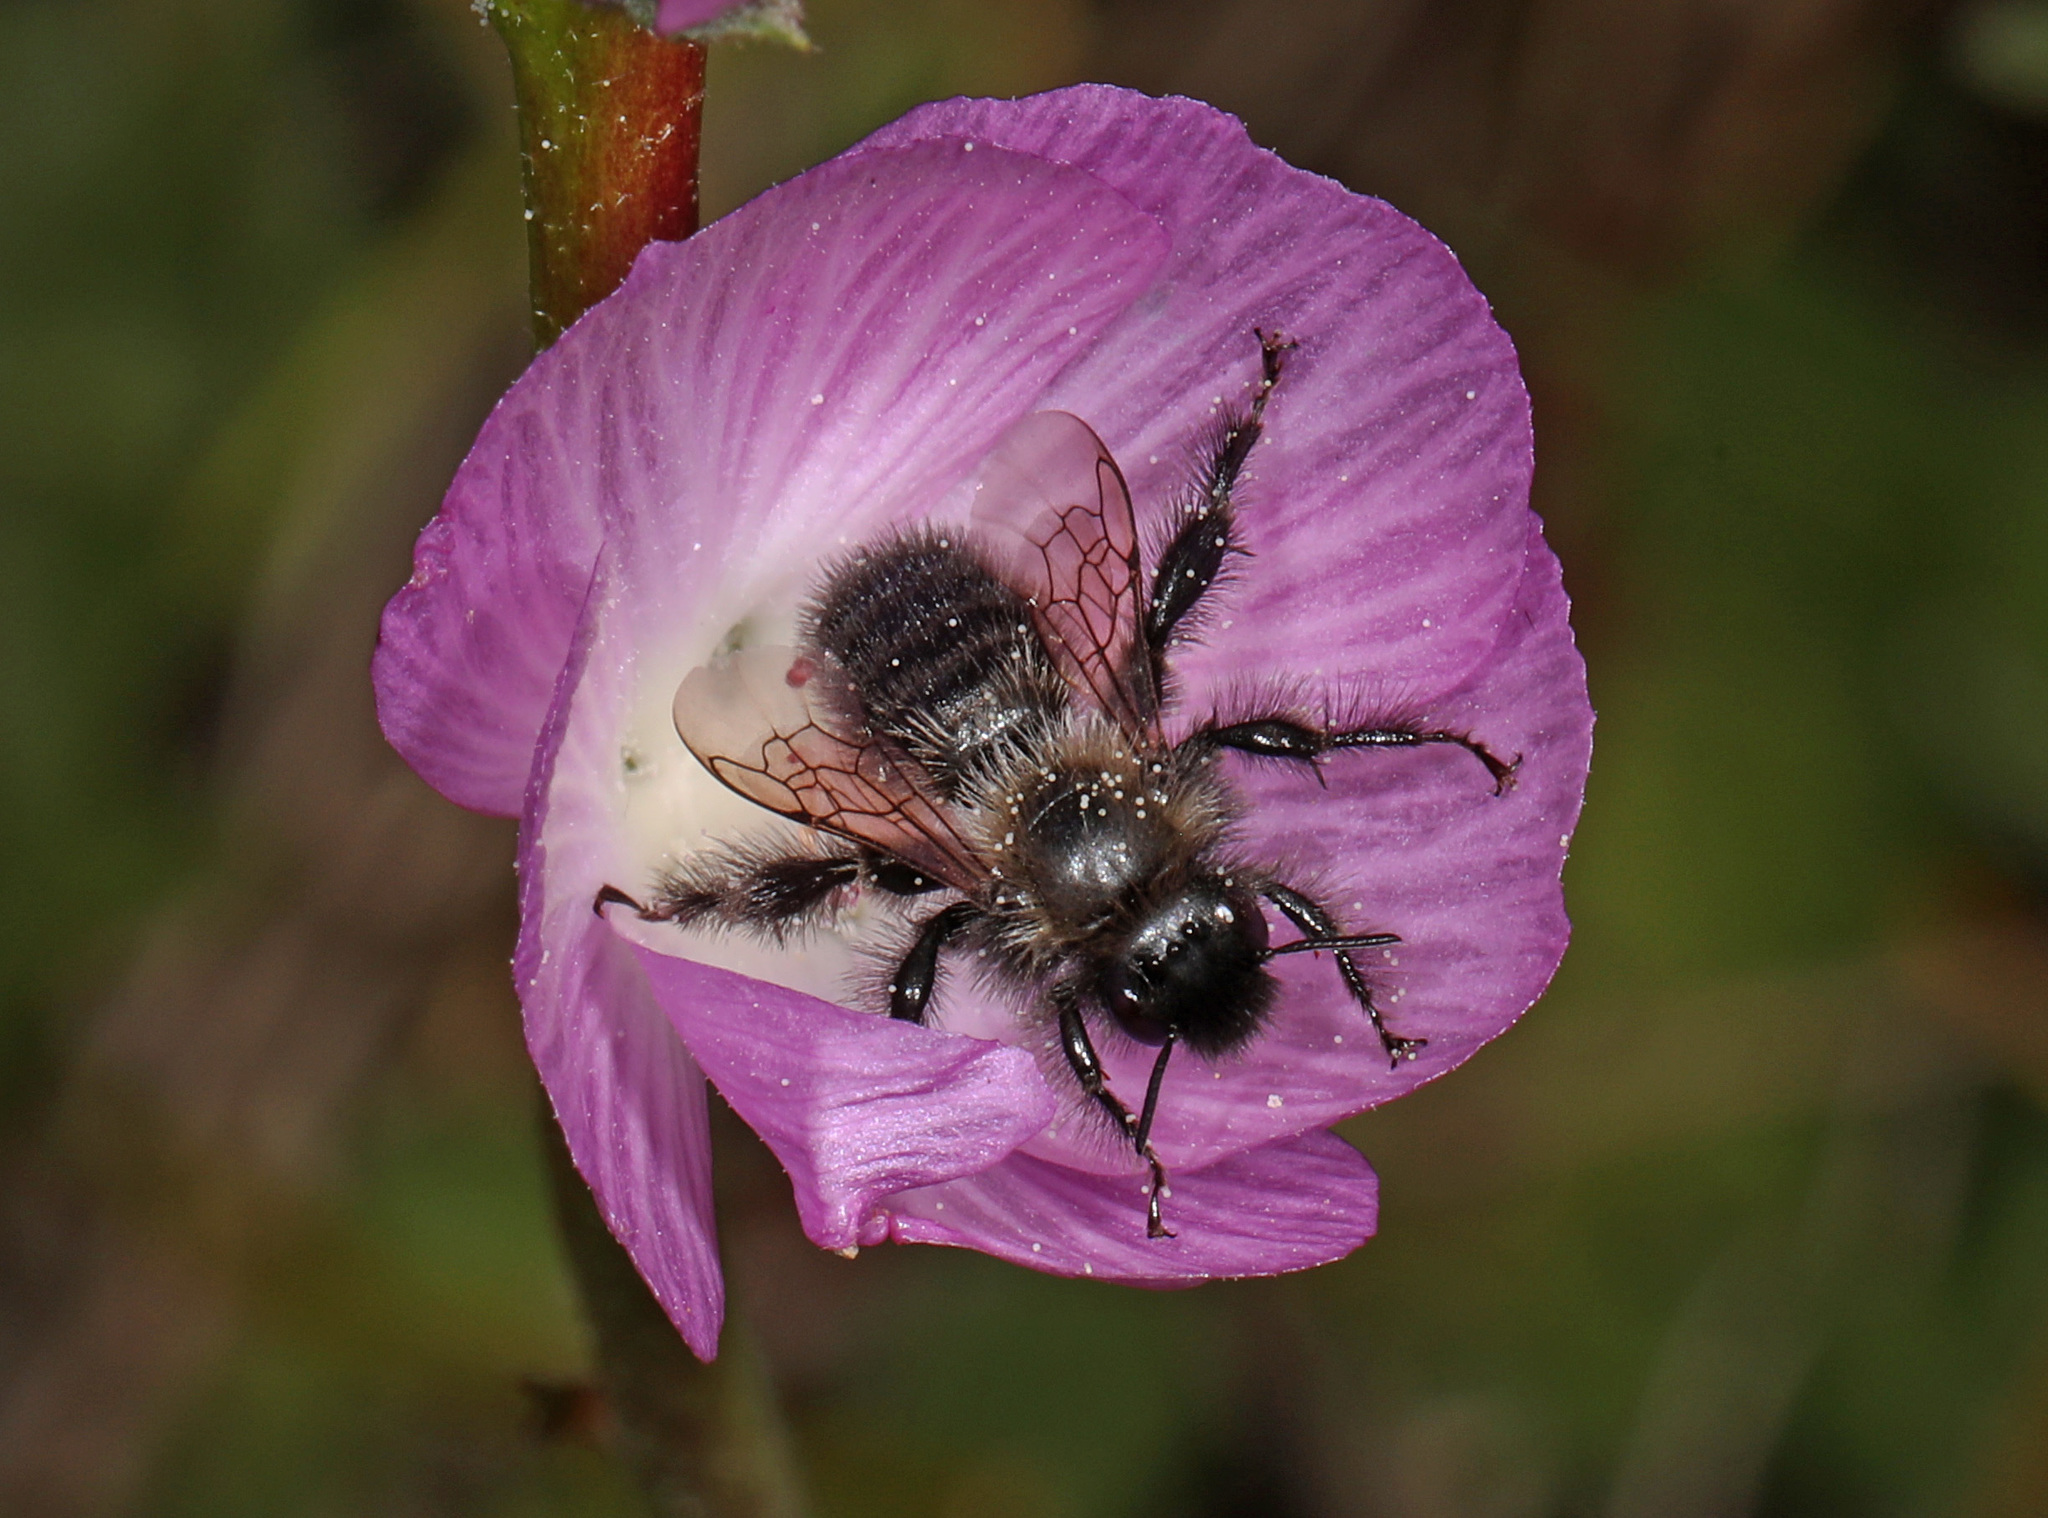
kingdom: Animalia
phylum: Arthropoda
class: Insecta
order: Hymenoptera
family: Apidae
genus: Diadasia
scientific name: Diadasia nigrifrons
